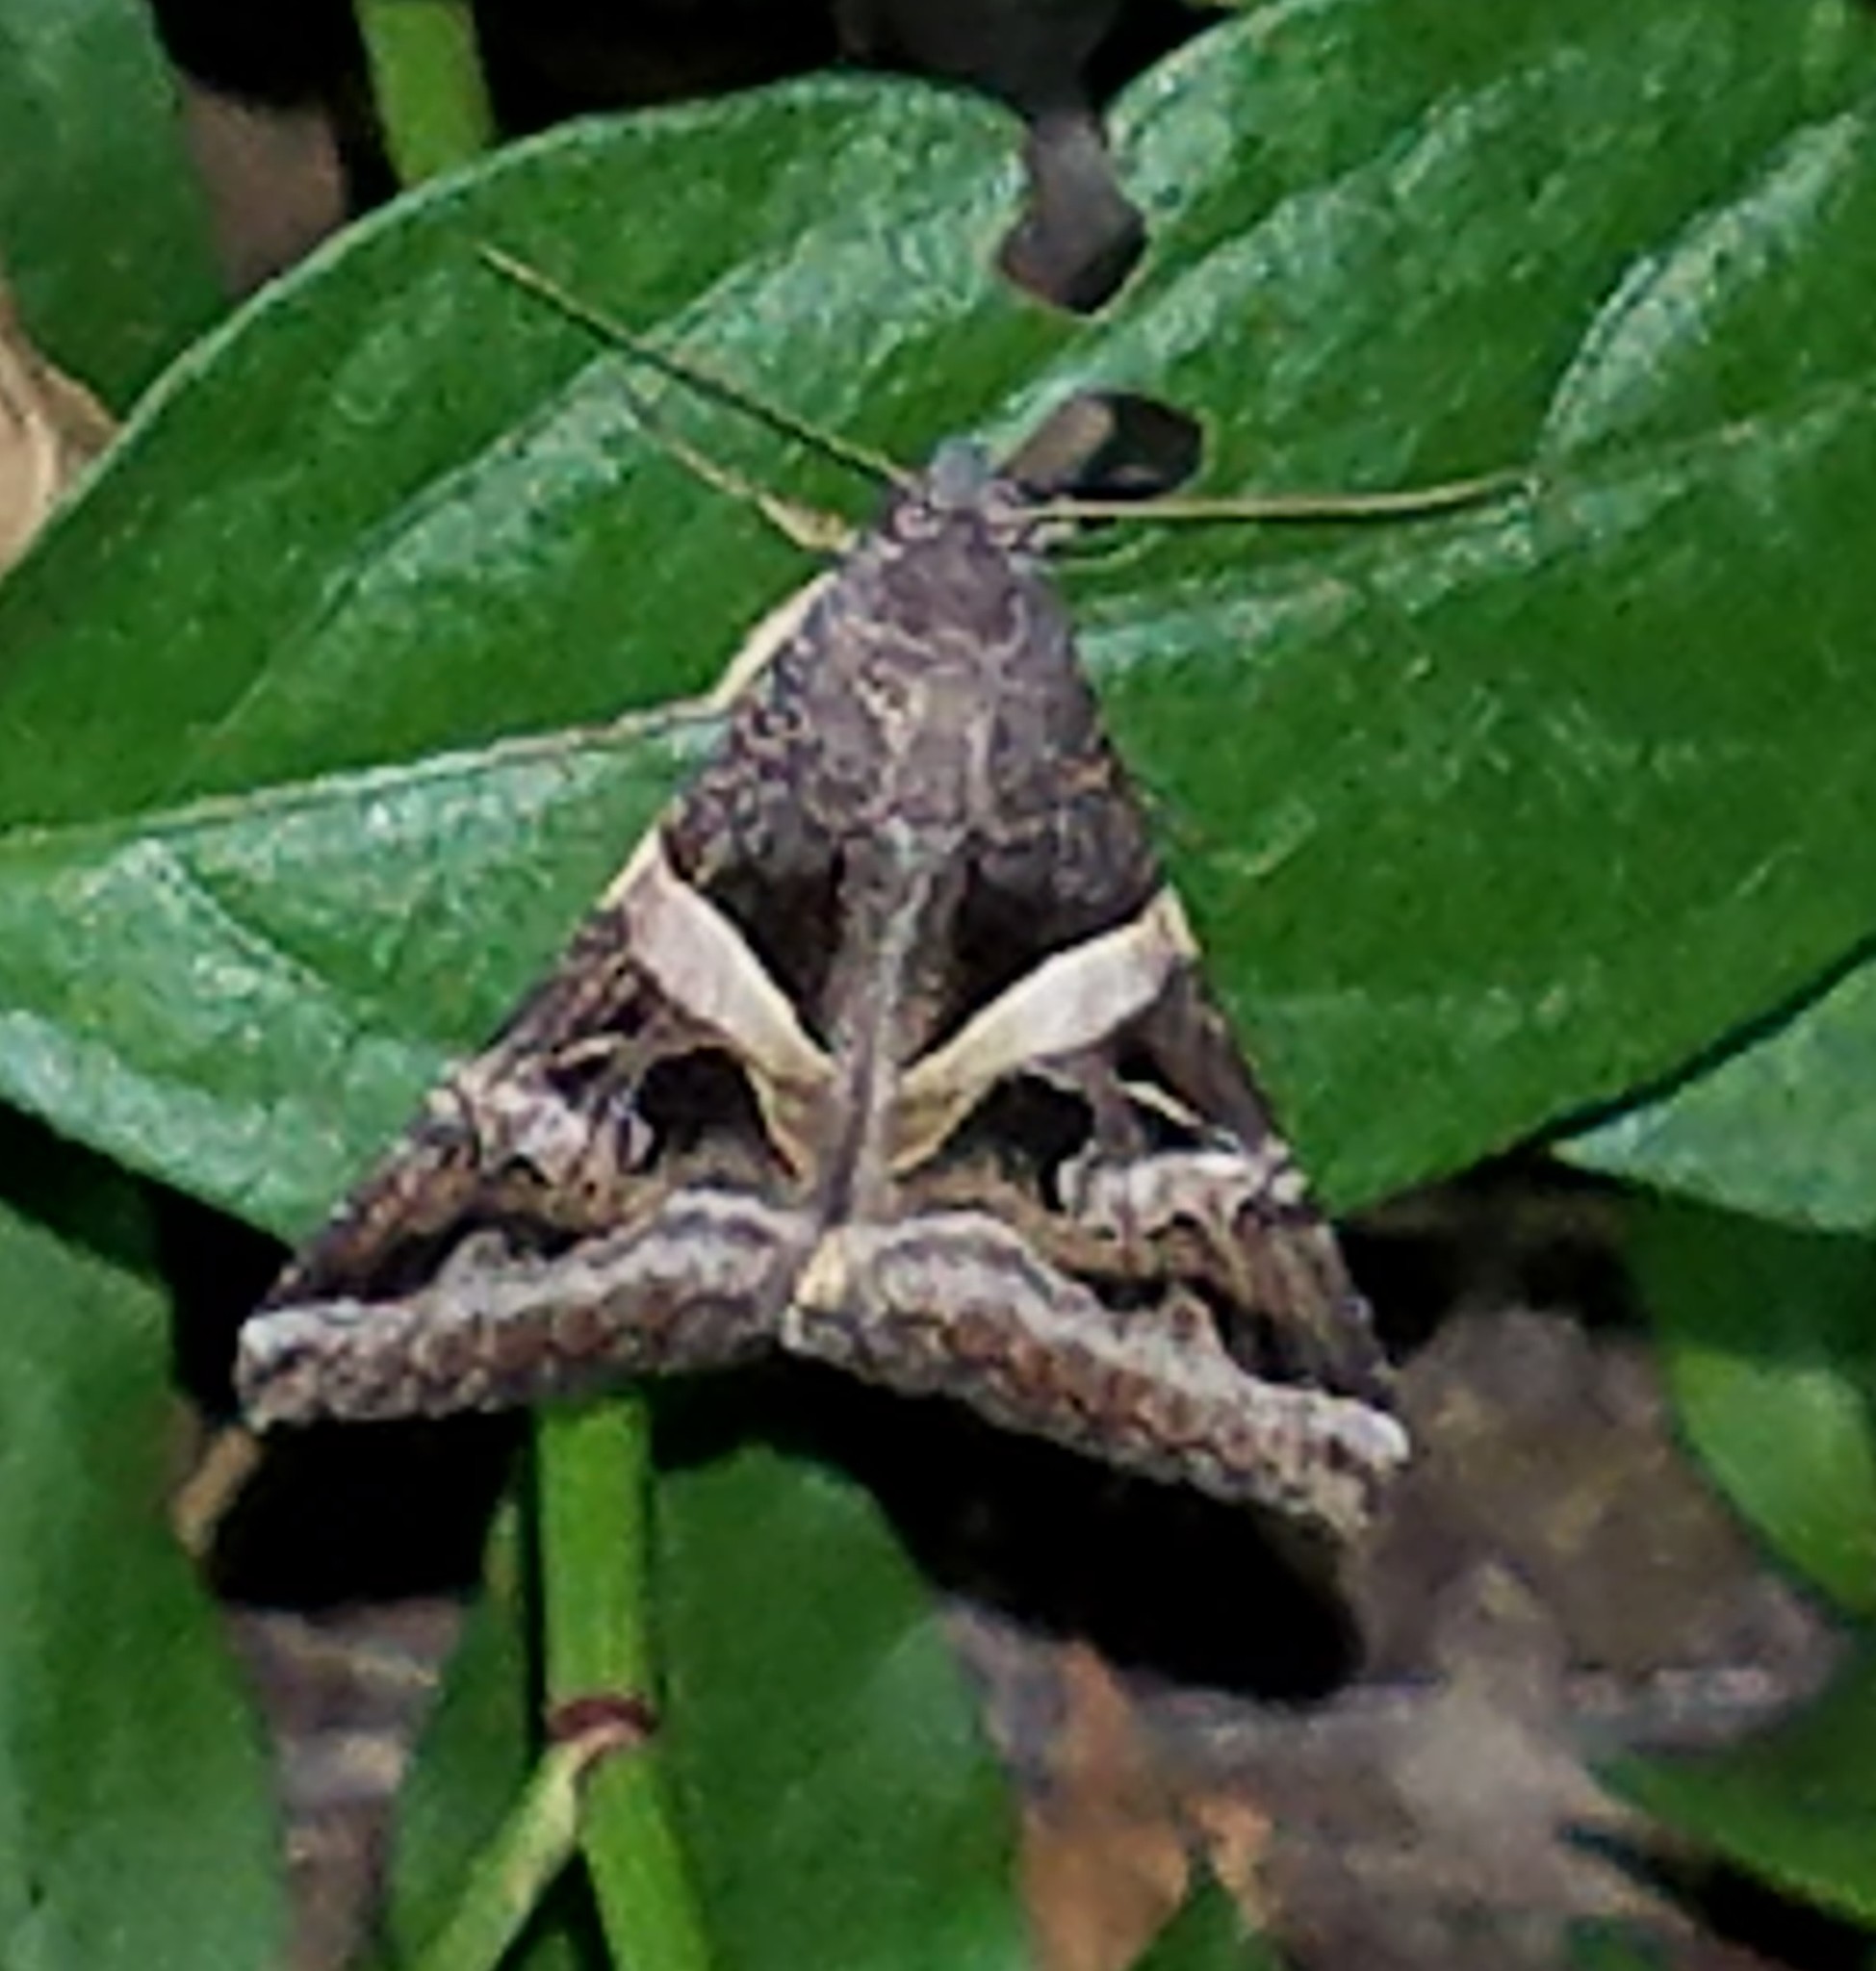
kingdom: Animalia
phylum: Arthropoda
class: Insecta
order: Lepidoptera
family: Erebidae
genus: Melipotis
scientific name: Melipotis indomita
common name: Moth
